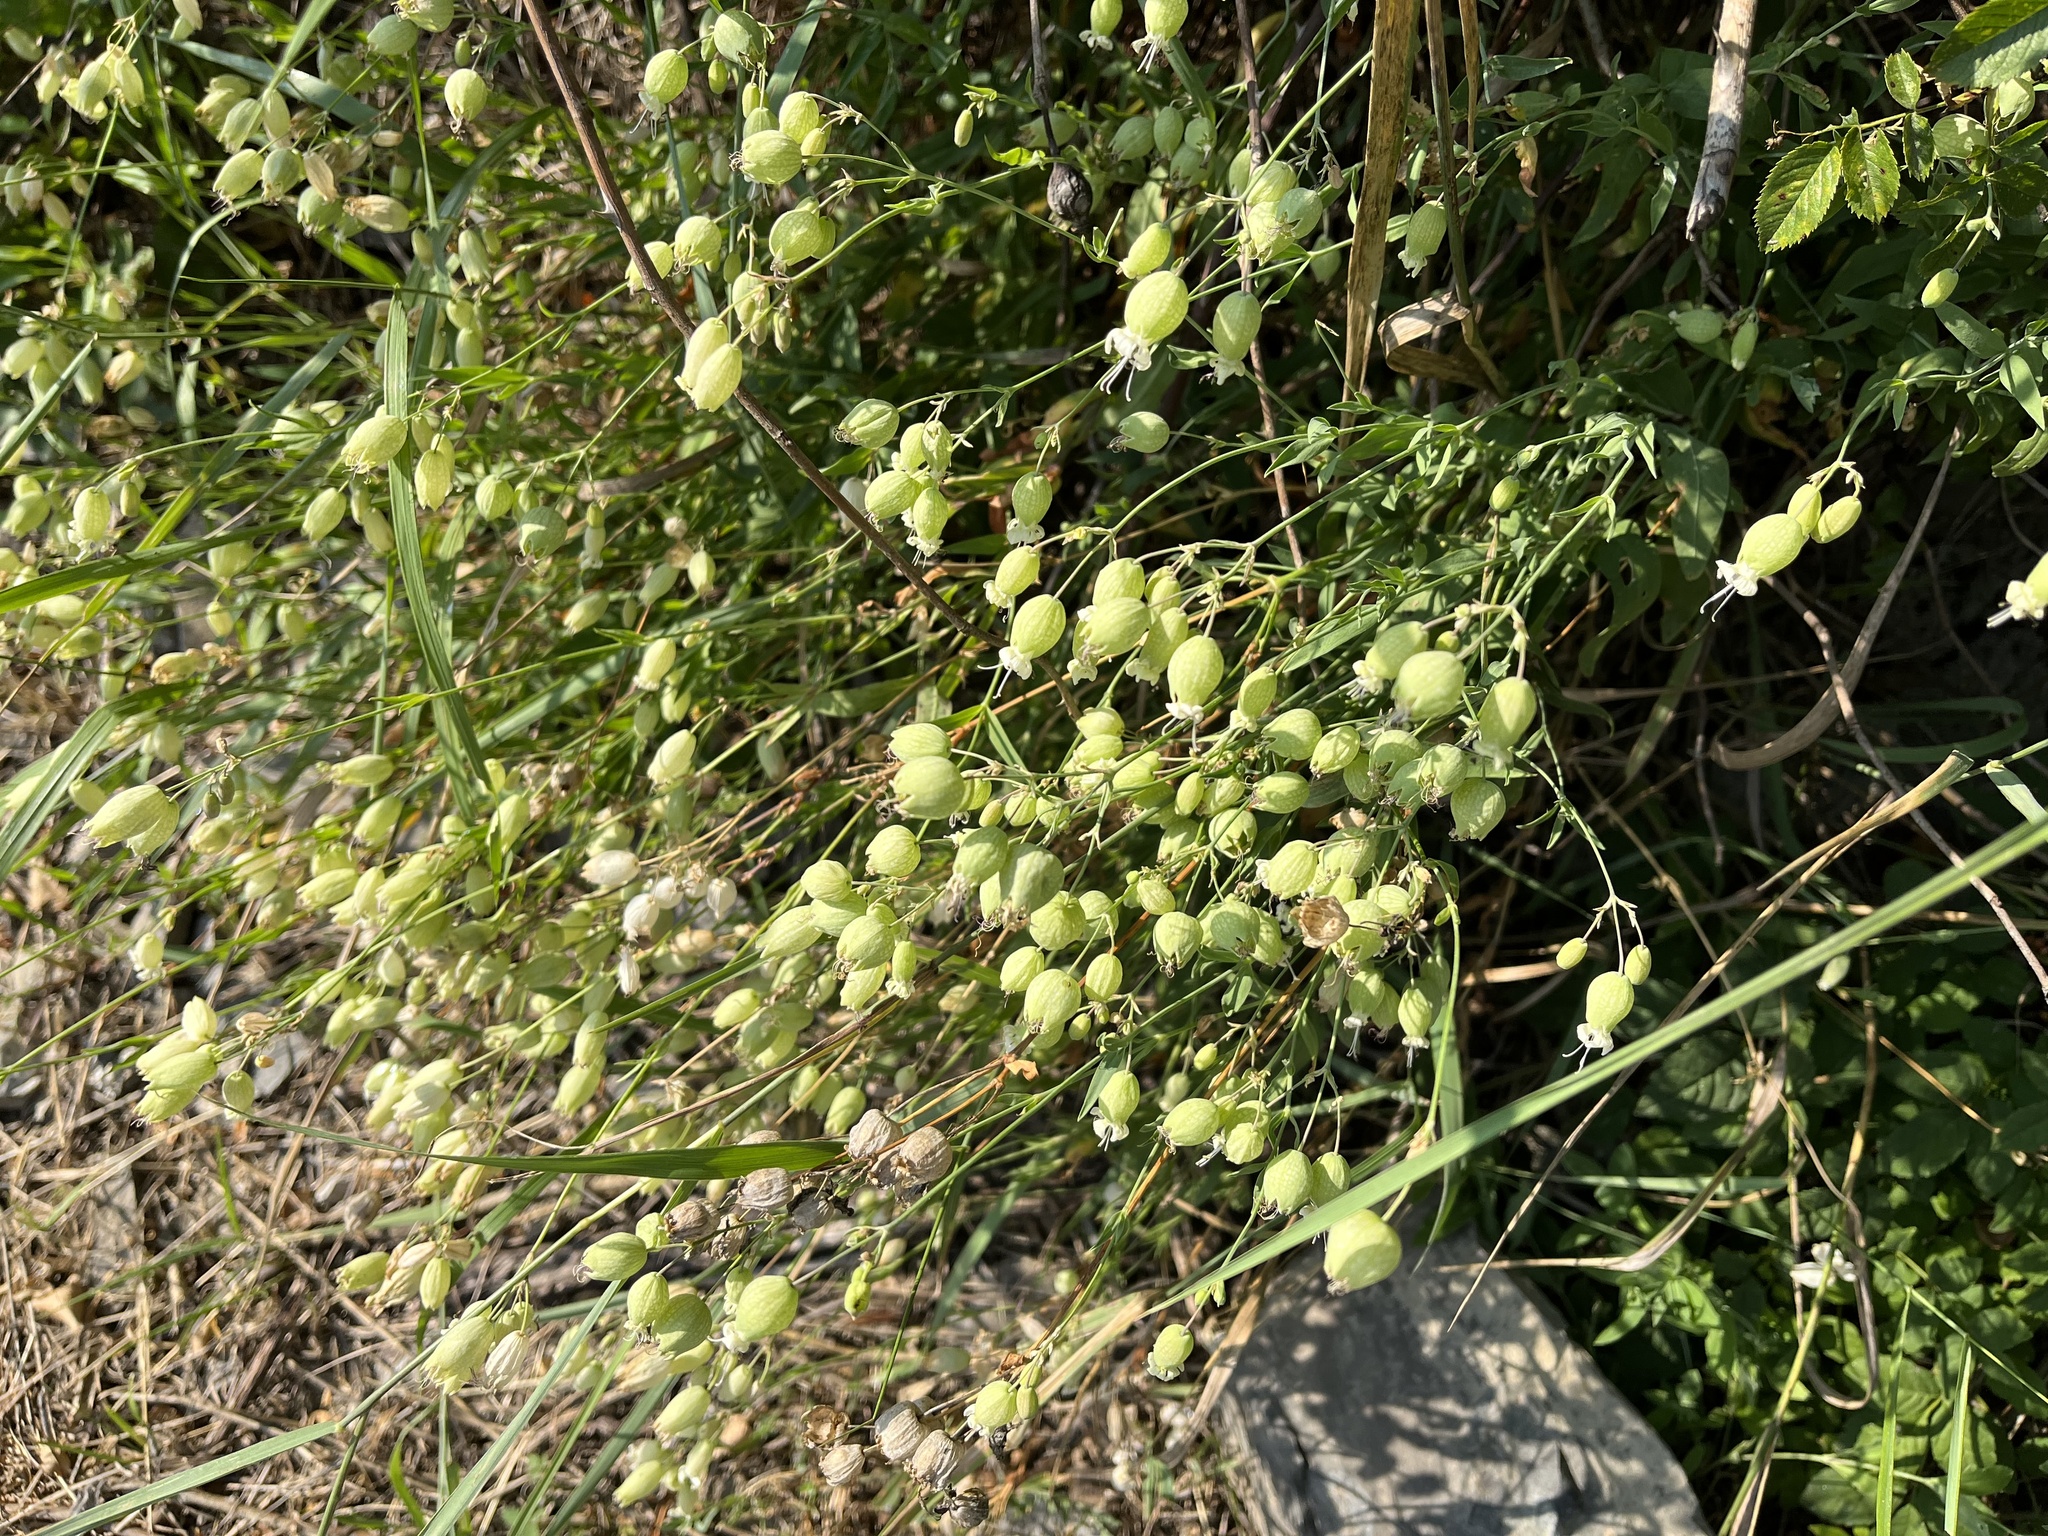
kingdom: Plantae
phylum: Tracheophyta
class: Magnoliopsida
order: Caryophyllales
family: Caryophyllaceae
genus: Silene
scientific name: Silene vulgaris
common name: Bladder campion
